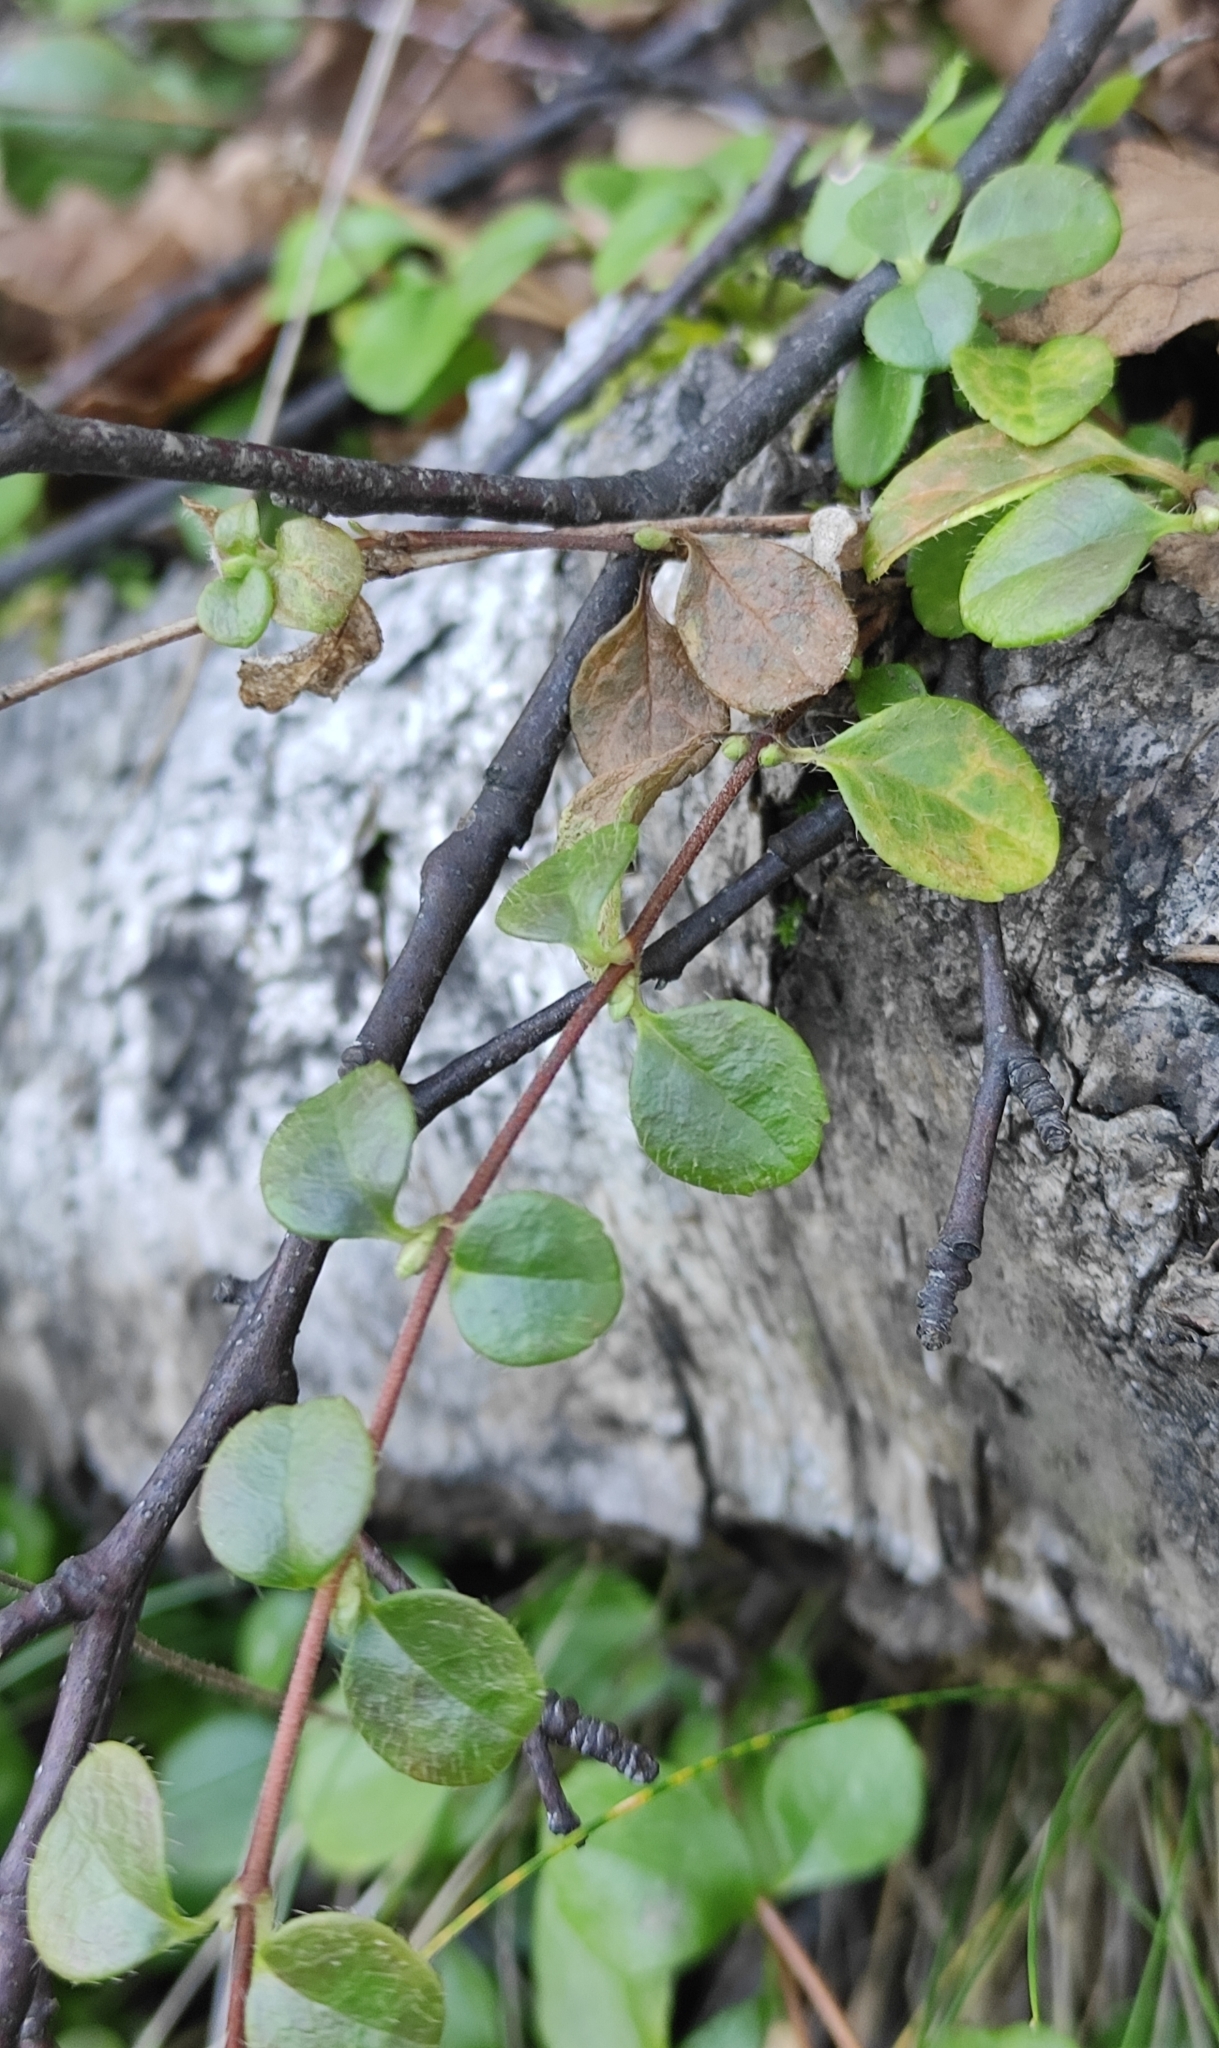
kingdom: Plantae
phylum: Tracheophyta
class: Magnoliopsida
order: Dipsacales
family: Caprifoliaceae
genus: Linnaea
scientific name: Linnaea borealis
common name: Twinflower
